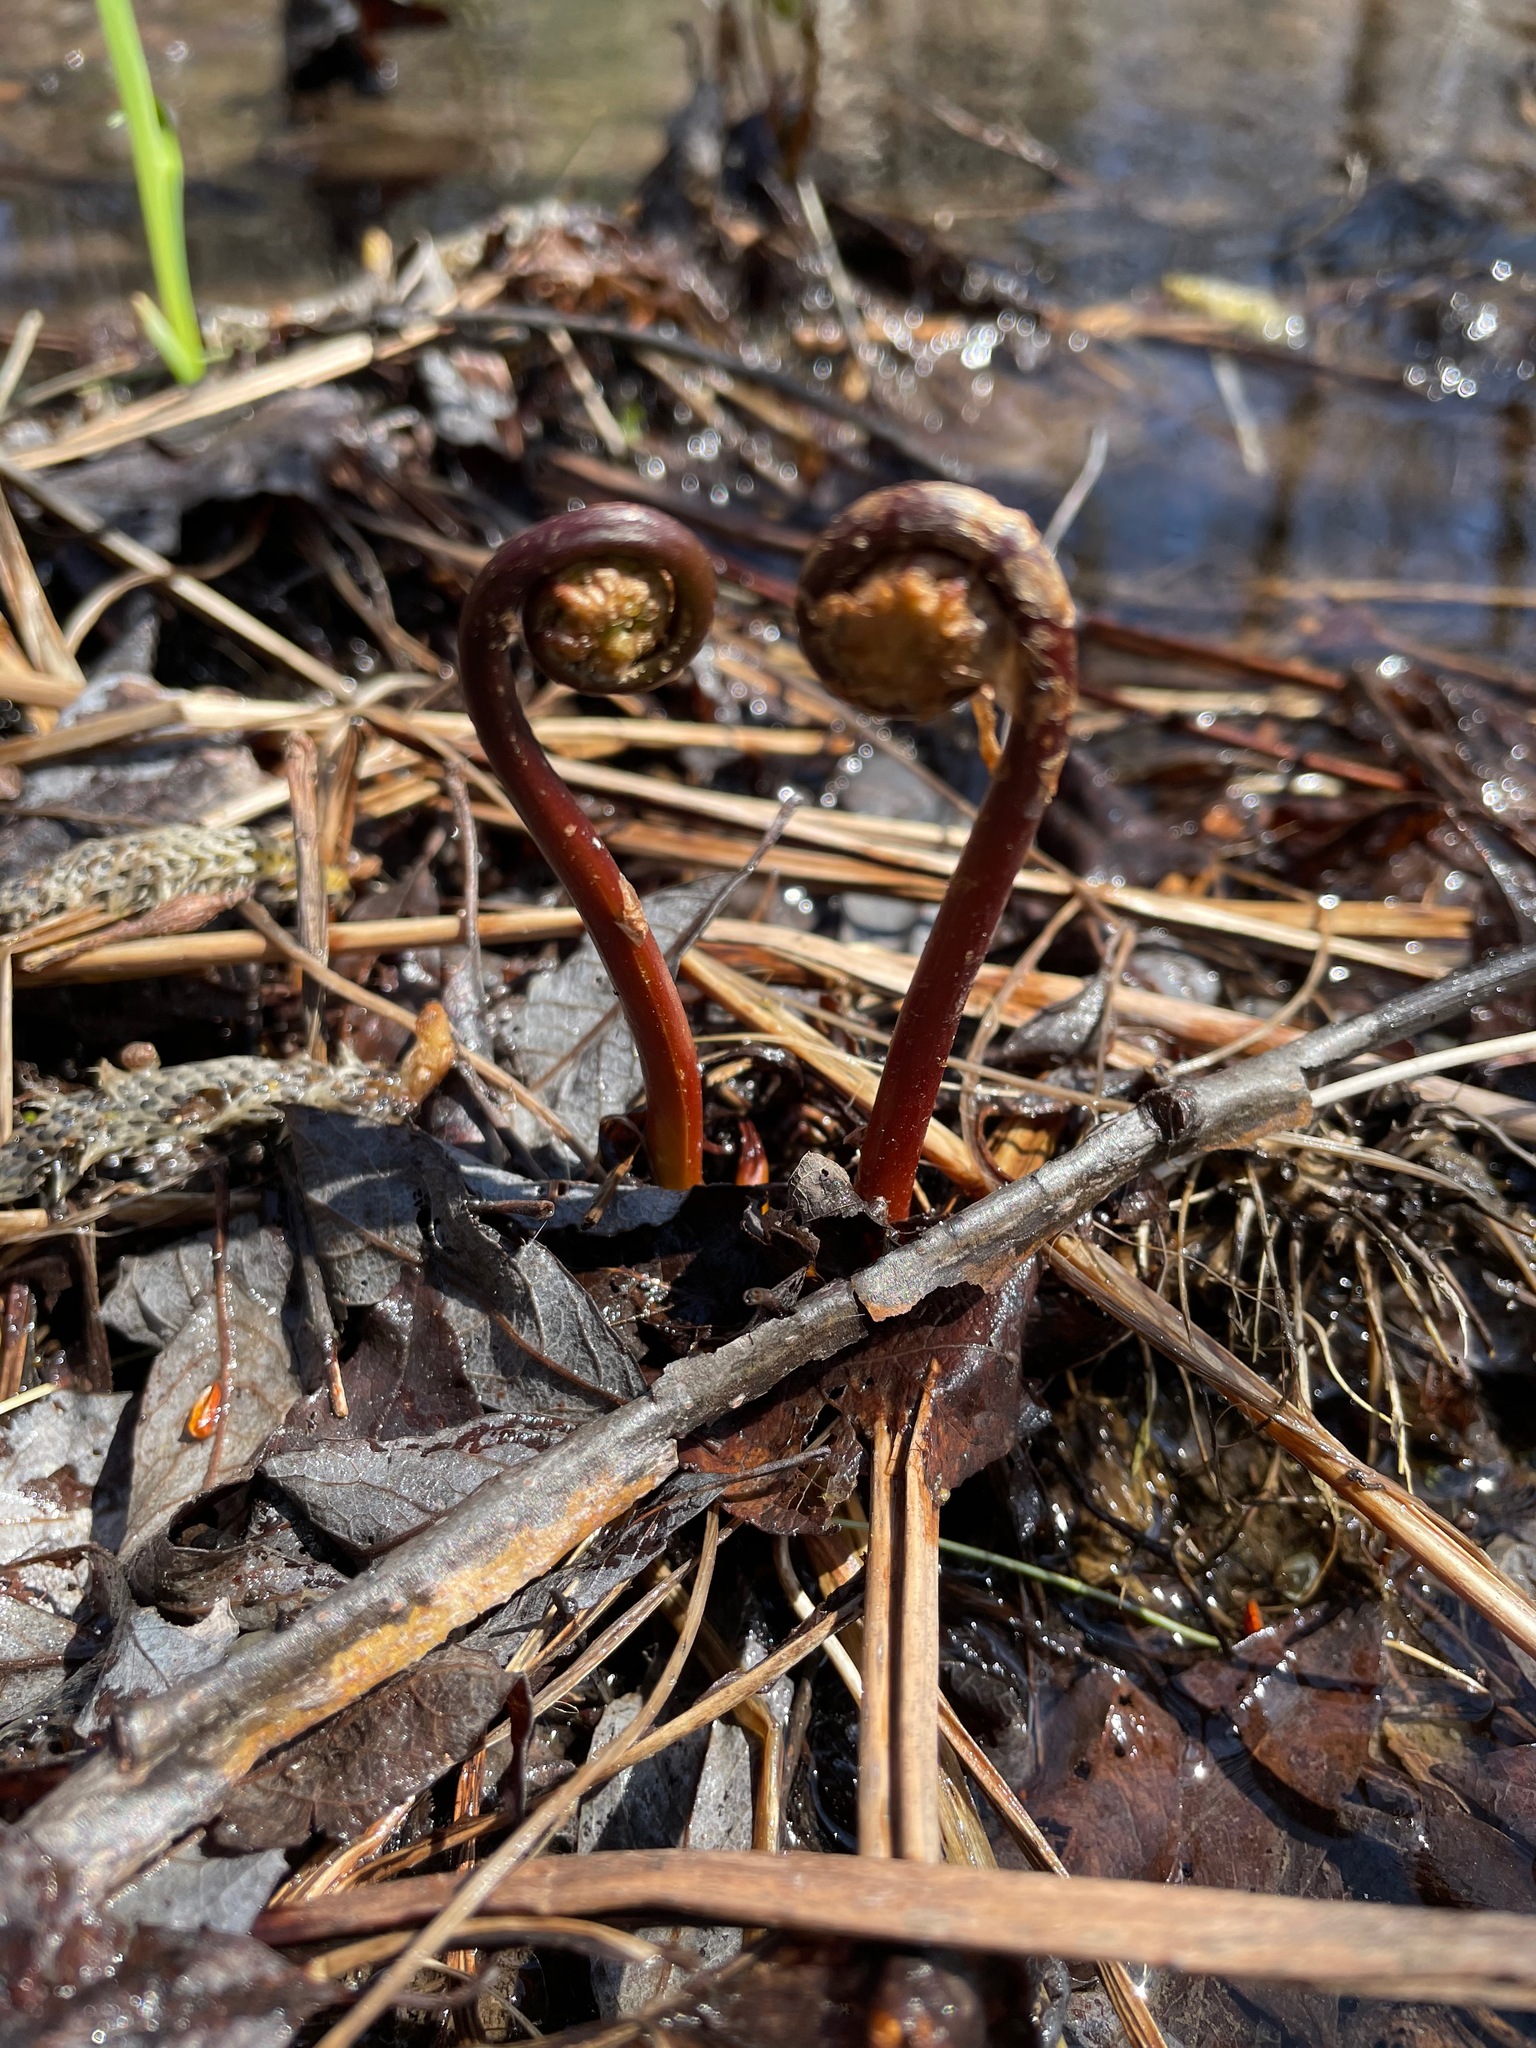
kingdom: Plantae
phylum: Tracheophyta
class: Polypodiopsida
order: Polypodiales
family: Onocleaceae
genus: Onoclea
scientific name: Onoclea sensibilis
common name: Sensitive fern
